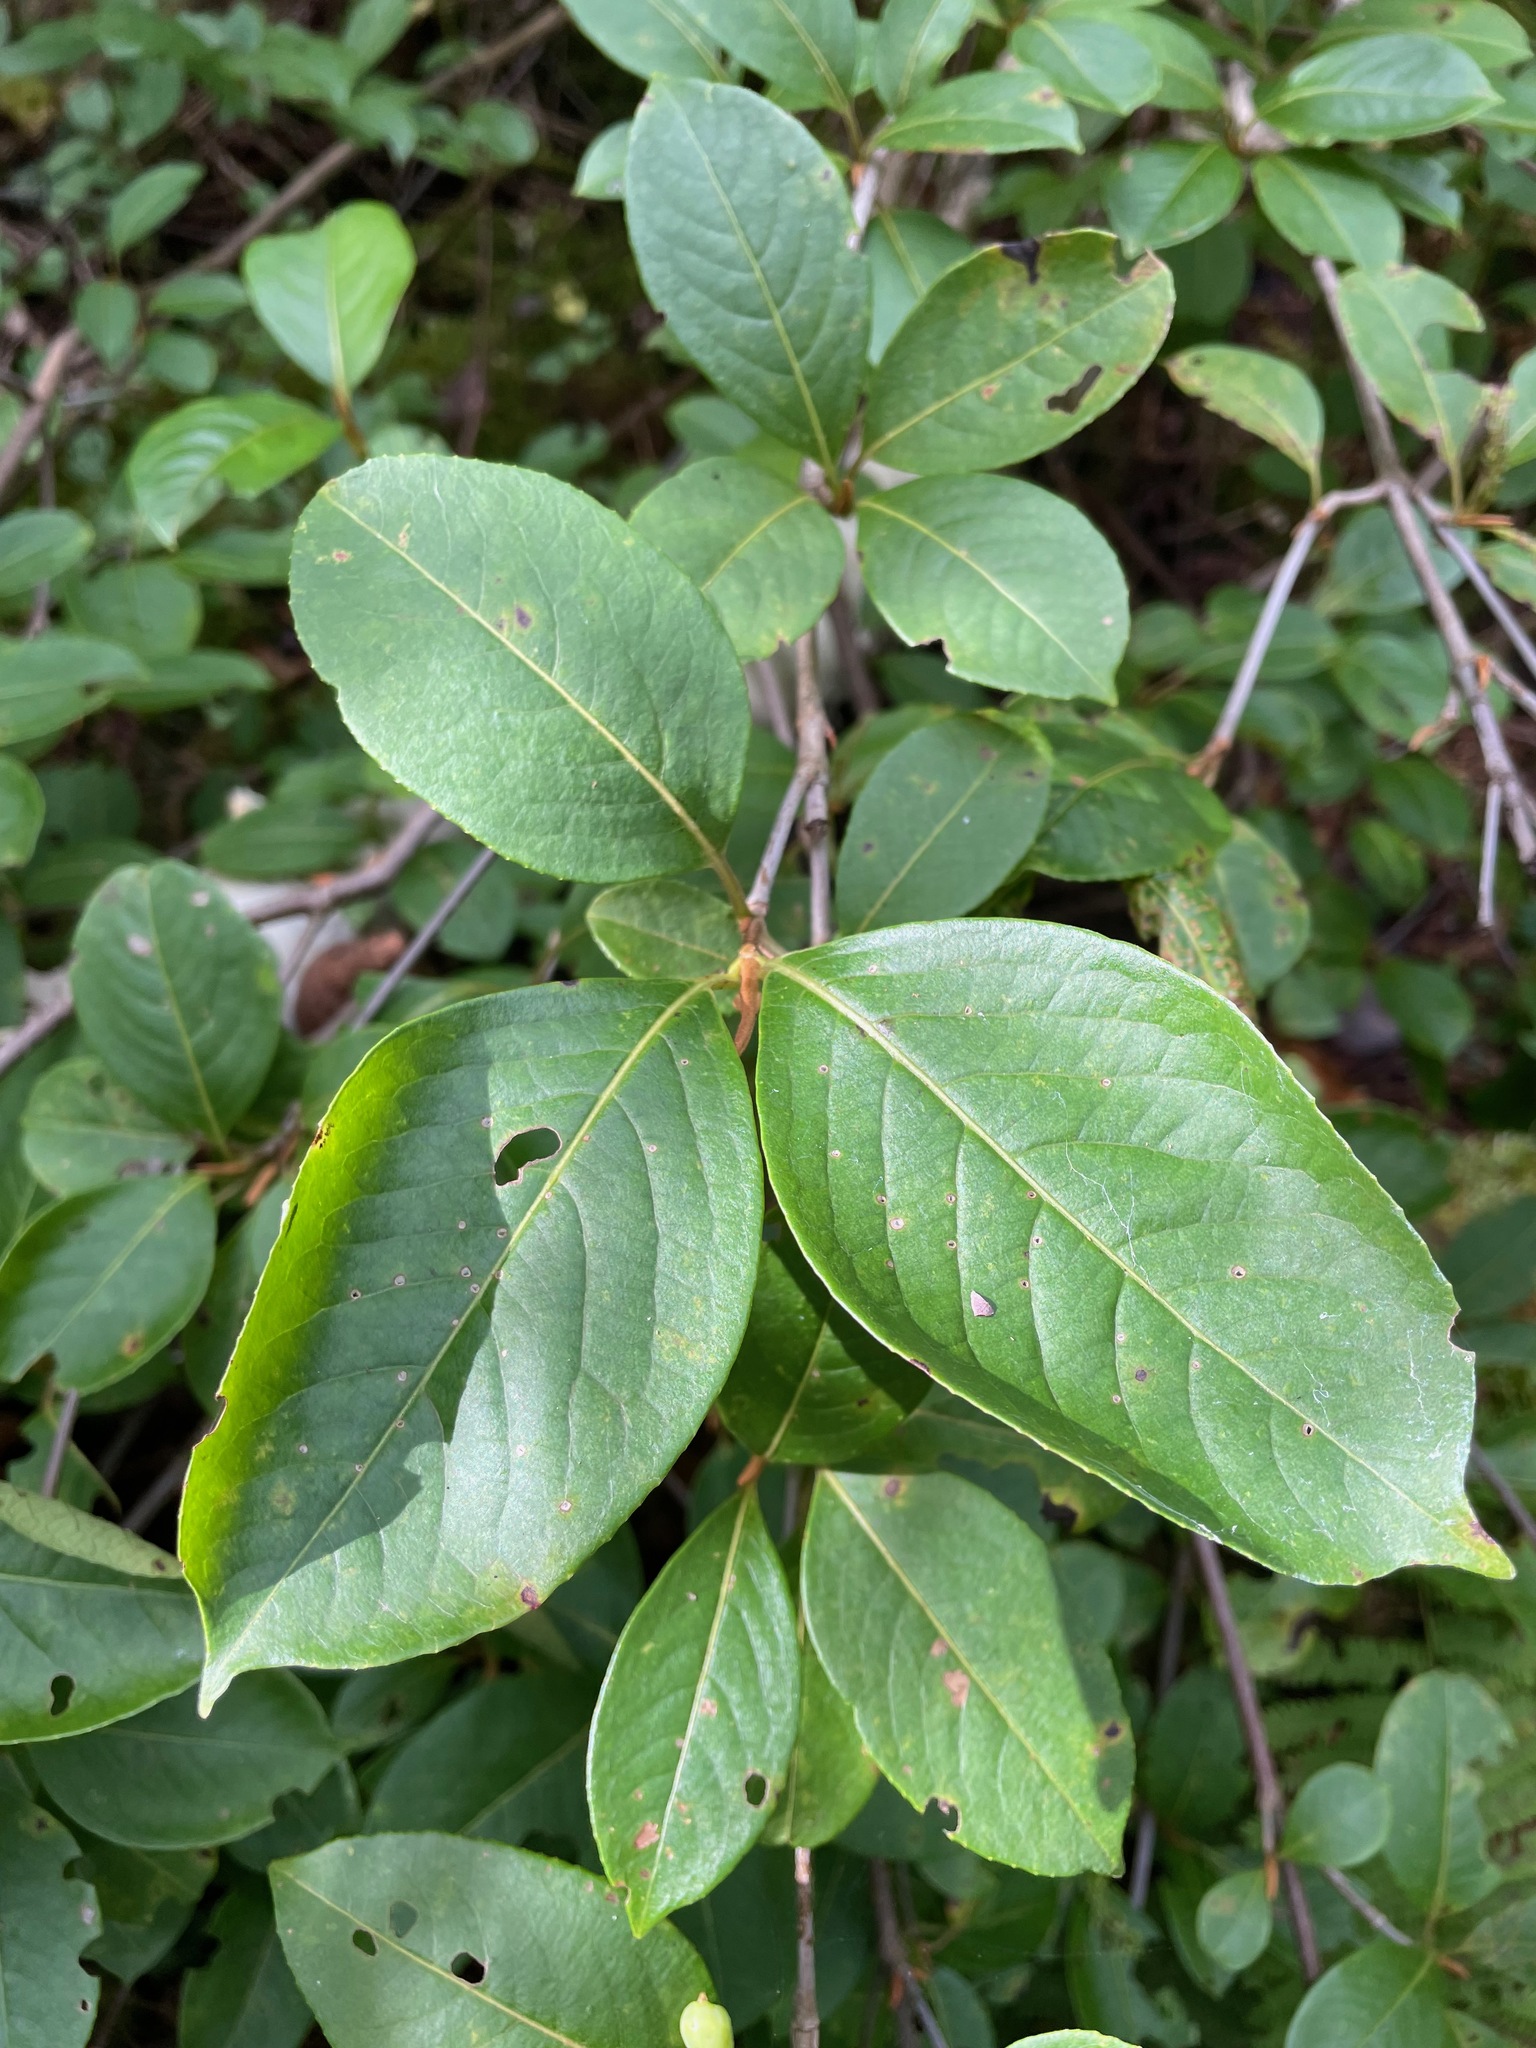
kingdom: Plantae
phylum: Tracheophyta
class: Magnoliopsida
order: Dipsacales
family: Viburnaceae
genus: Viburnum
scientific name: Viburnum cassinoides
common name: Swamp haw
